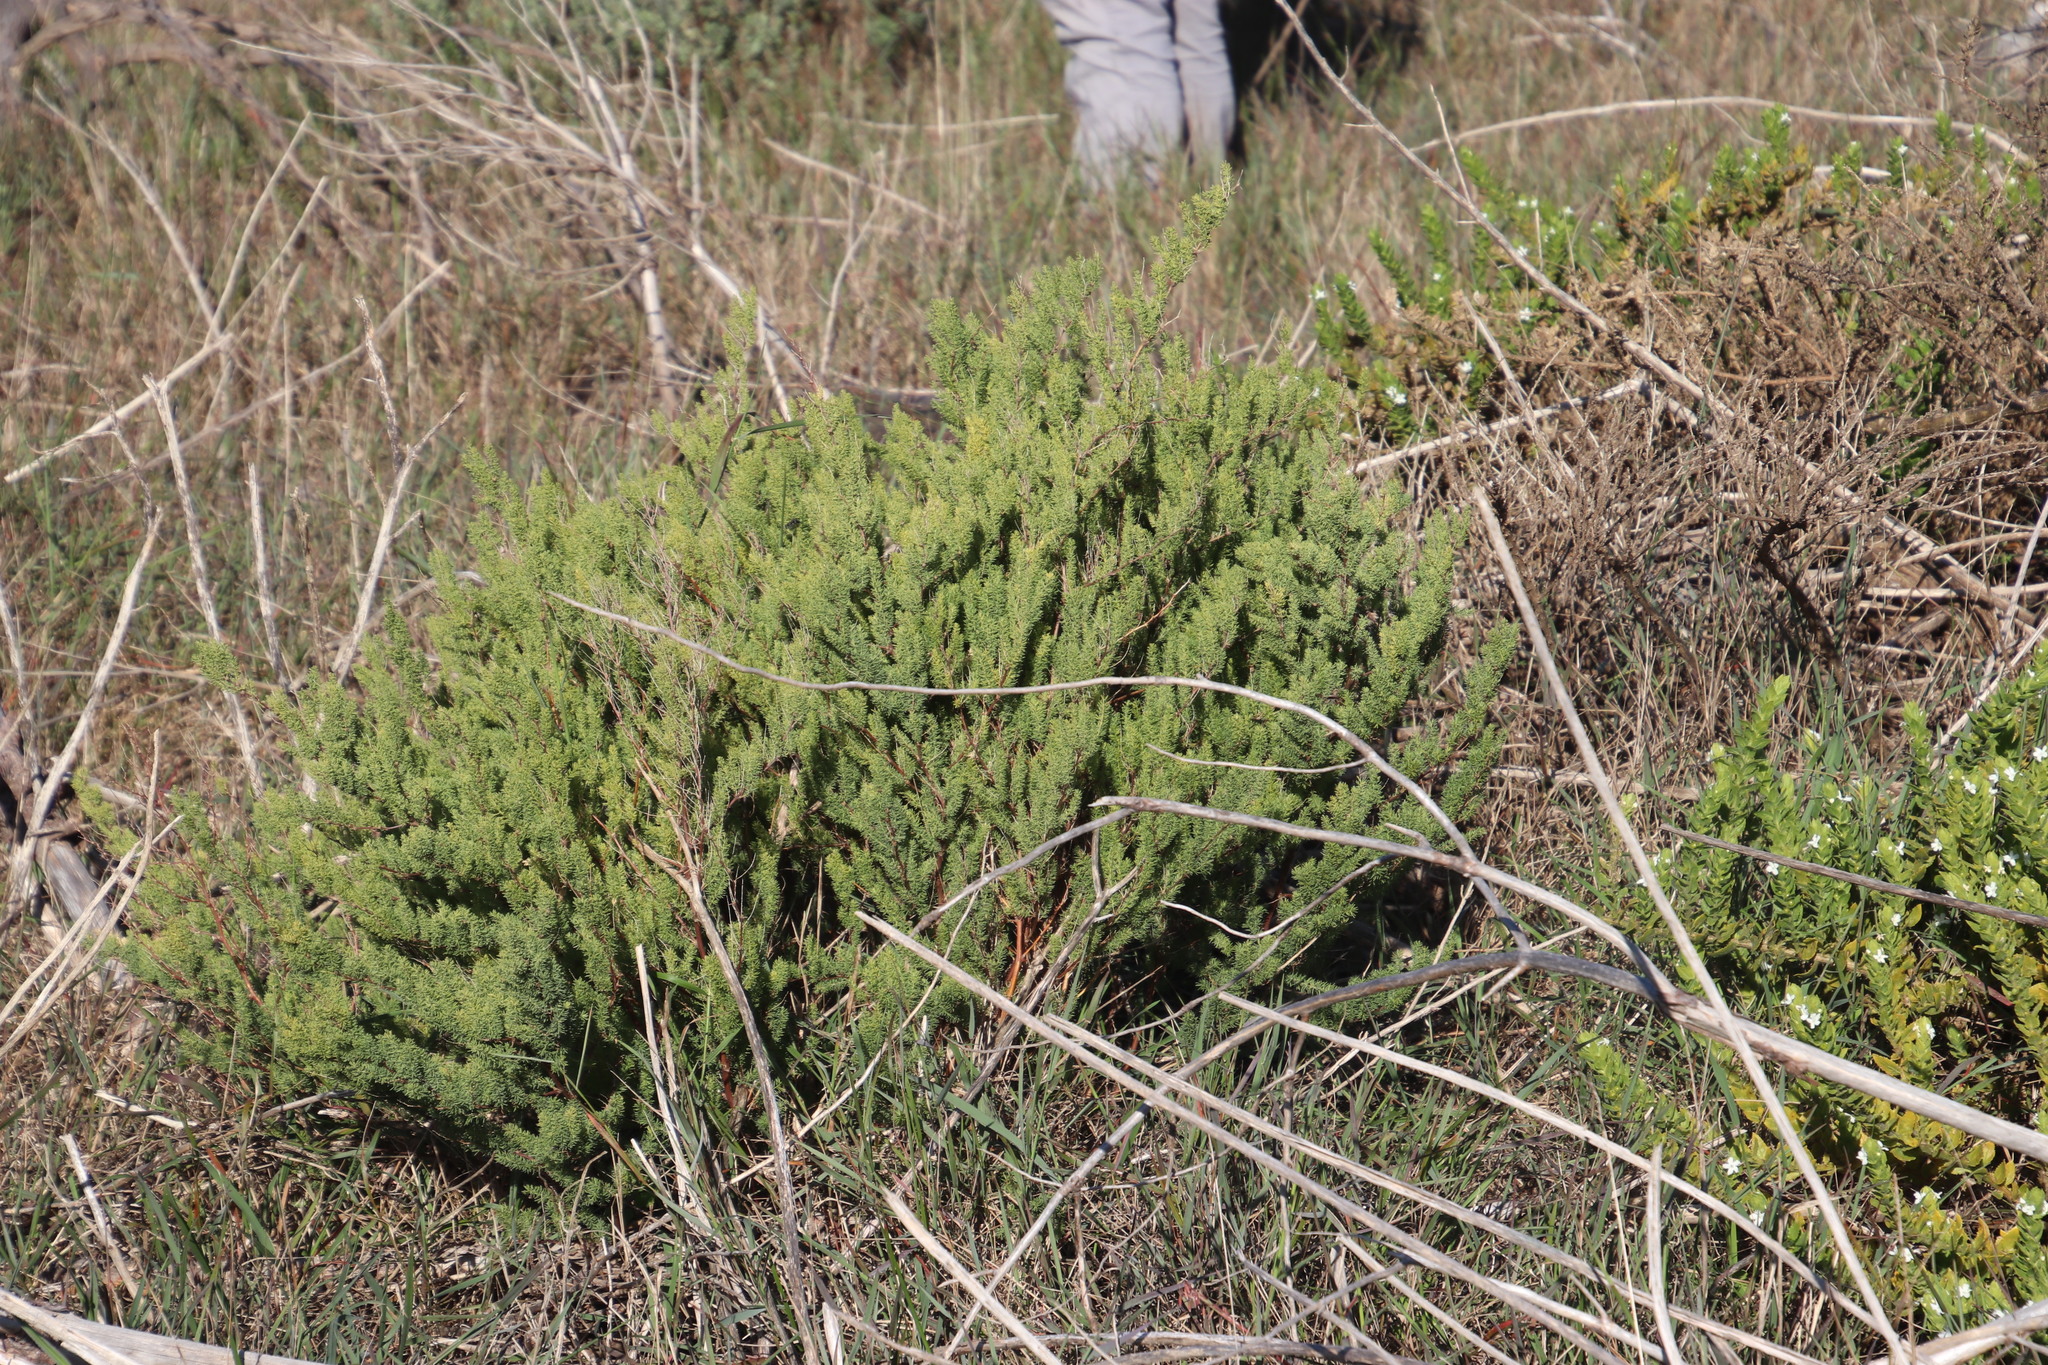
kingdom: Plantae
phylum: Tracheophyta
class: Liliopsida
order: Asparagales
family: Asparagaceae
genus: Asparagus
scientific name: Asparagus rubicundus
